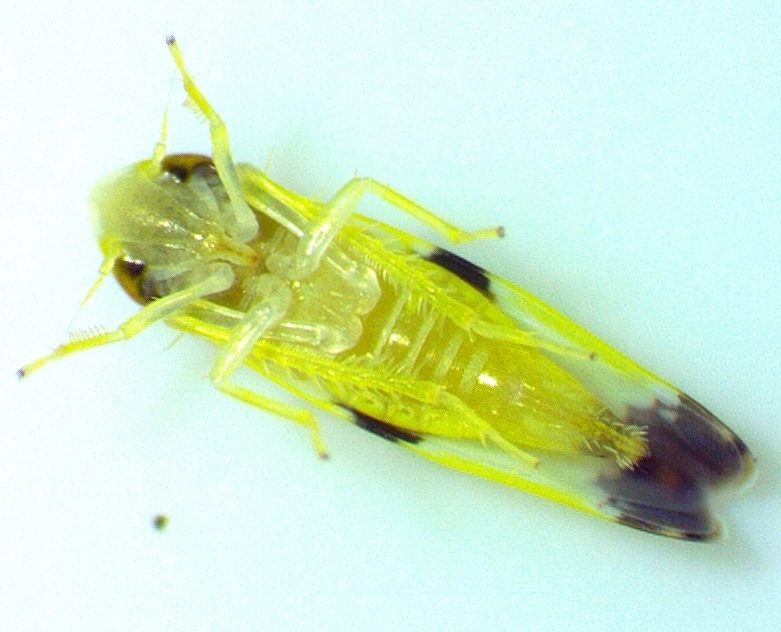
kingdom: Animalia
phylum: Arthropoda
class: Insecta
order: Hemiptera
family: Cicadellidae
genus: Erythroneura
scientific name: Erythroneura tricincta
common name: The threebanded grape leafhopper
